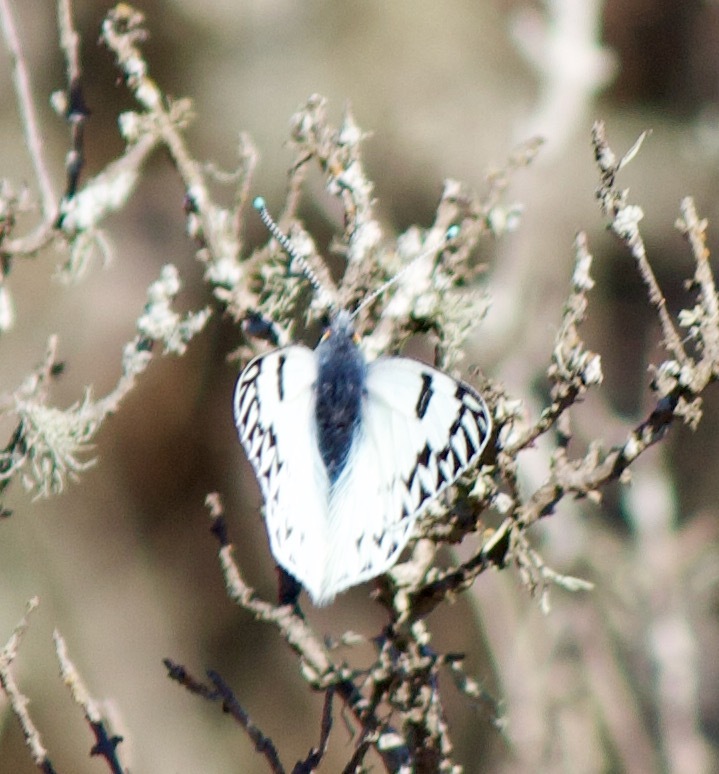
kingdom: Animalia
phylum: Arthropoda
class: Insecta
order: Lepidoptera
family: Pieridae
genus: Tatochila
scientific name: Tatochila autodice
